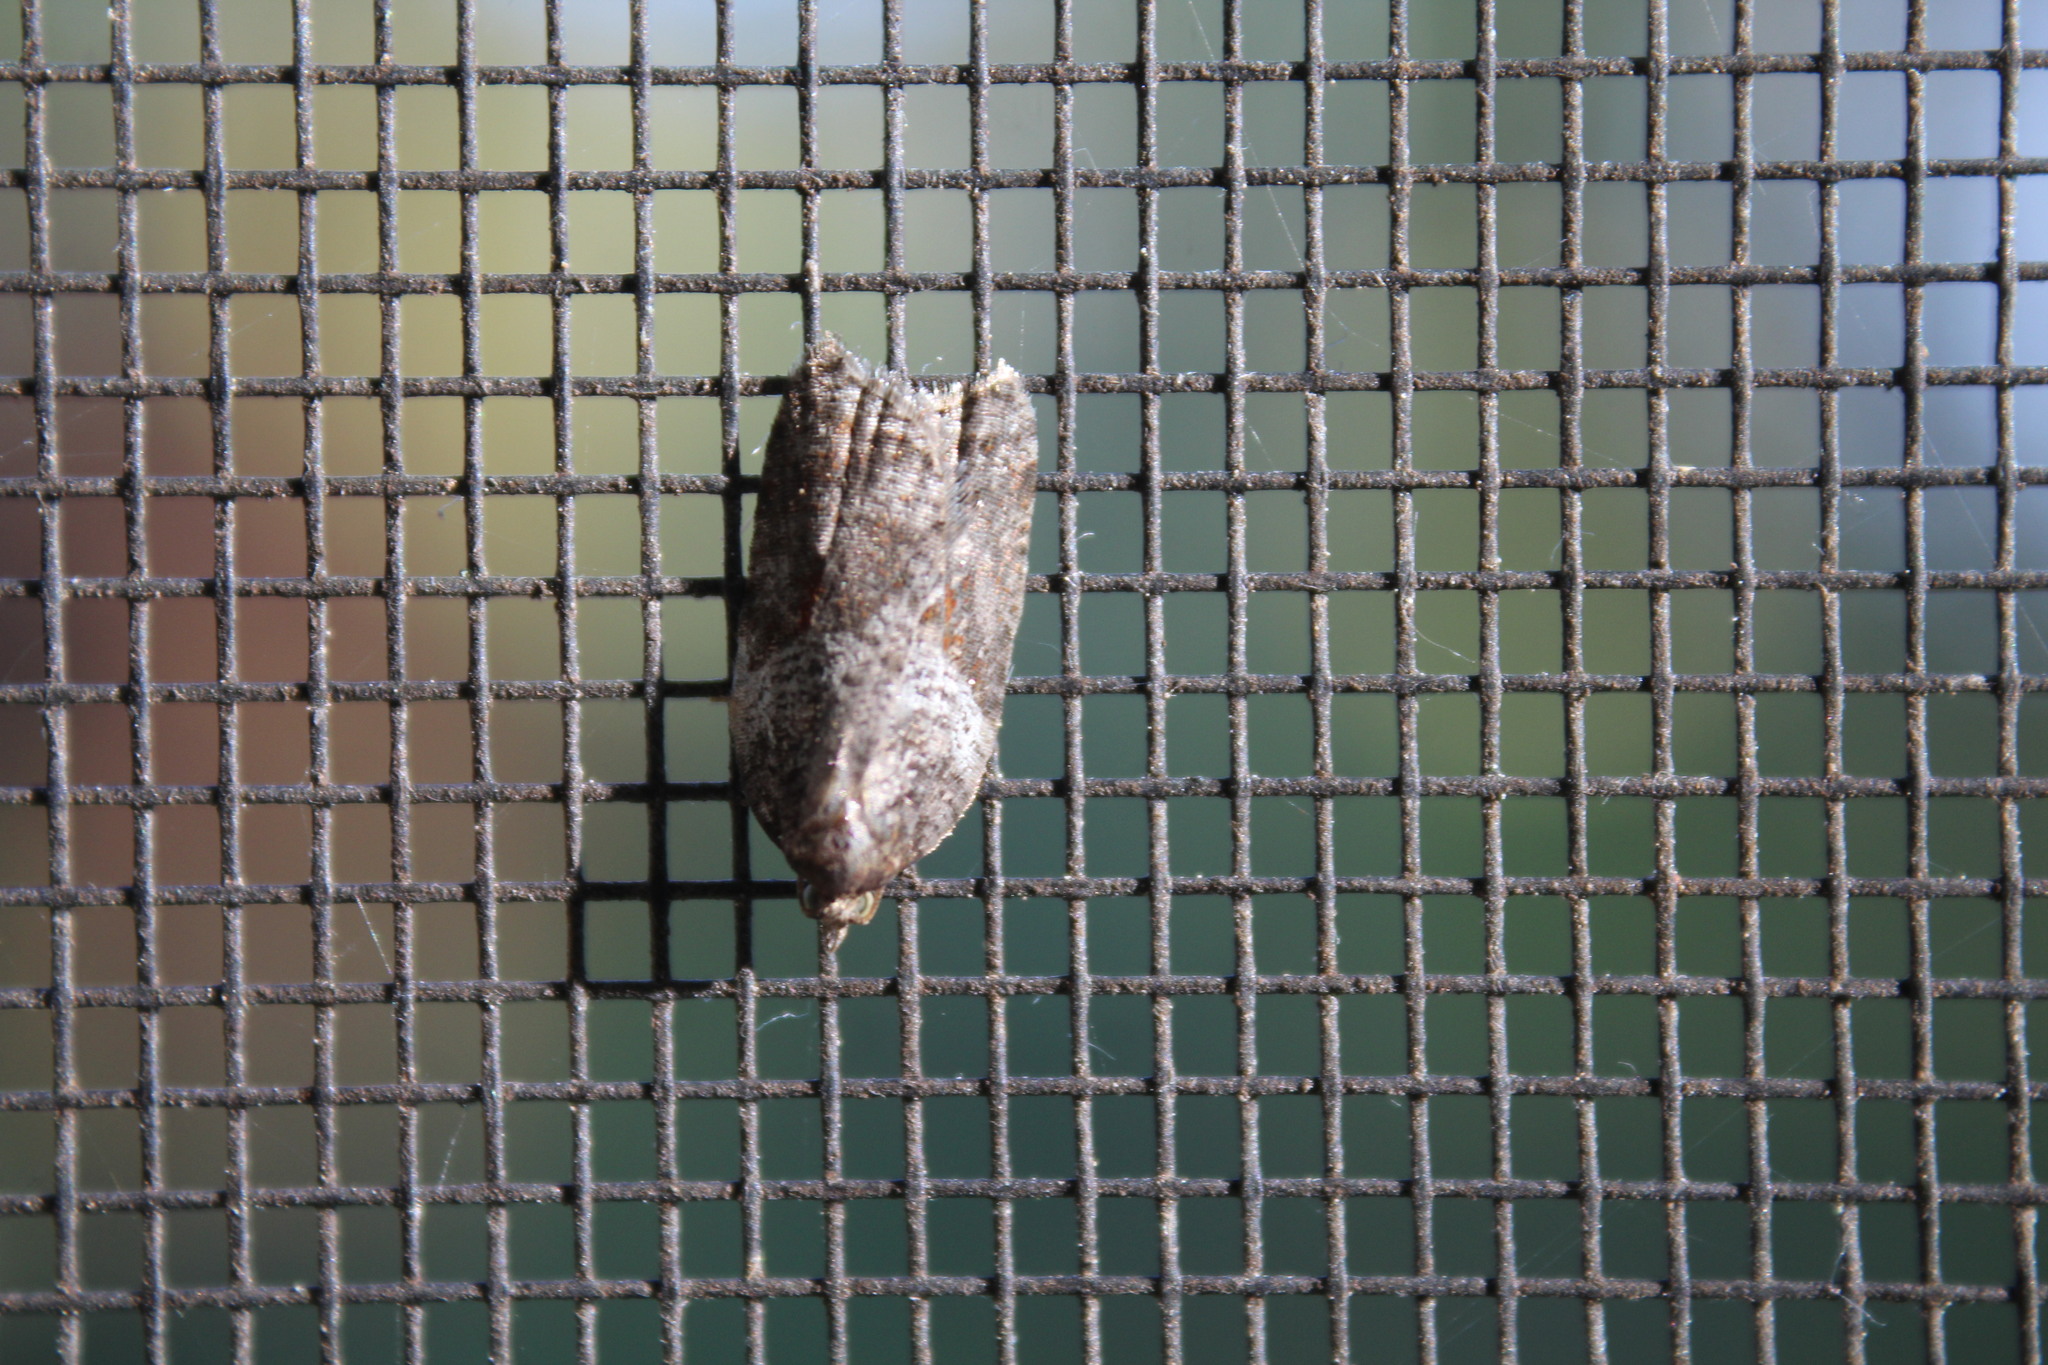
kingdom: Animalia
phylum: Arthropoda
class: Insecta
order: Lepidoptera
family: Tortricidae
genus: Acleris
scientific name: Acleris macdunnoughi
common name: Macdunnough's acleris
